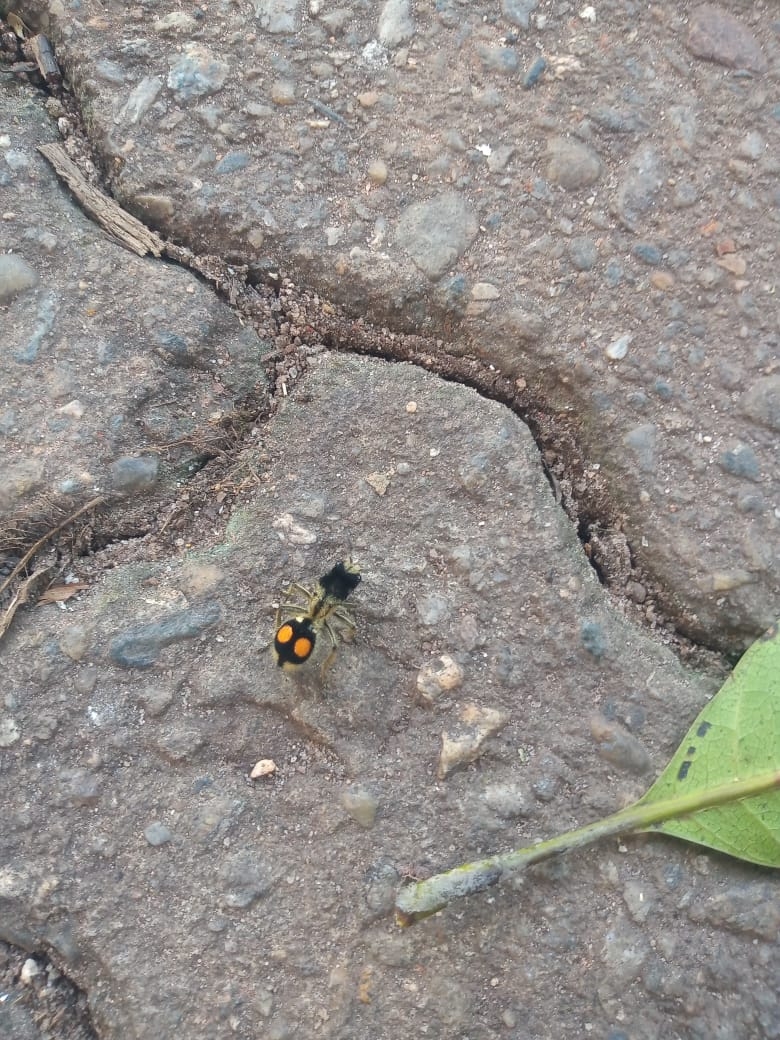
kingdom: Animalia
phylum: Arthropoda
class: Insecta
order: Hymenoptera
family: Mutillidae
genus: Hoplomutilla
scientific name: Hoplomutilla
